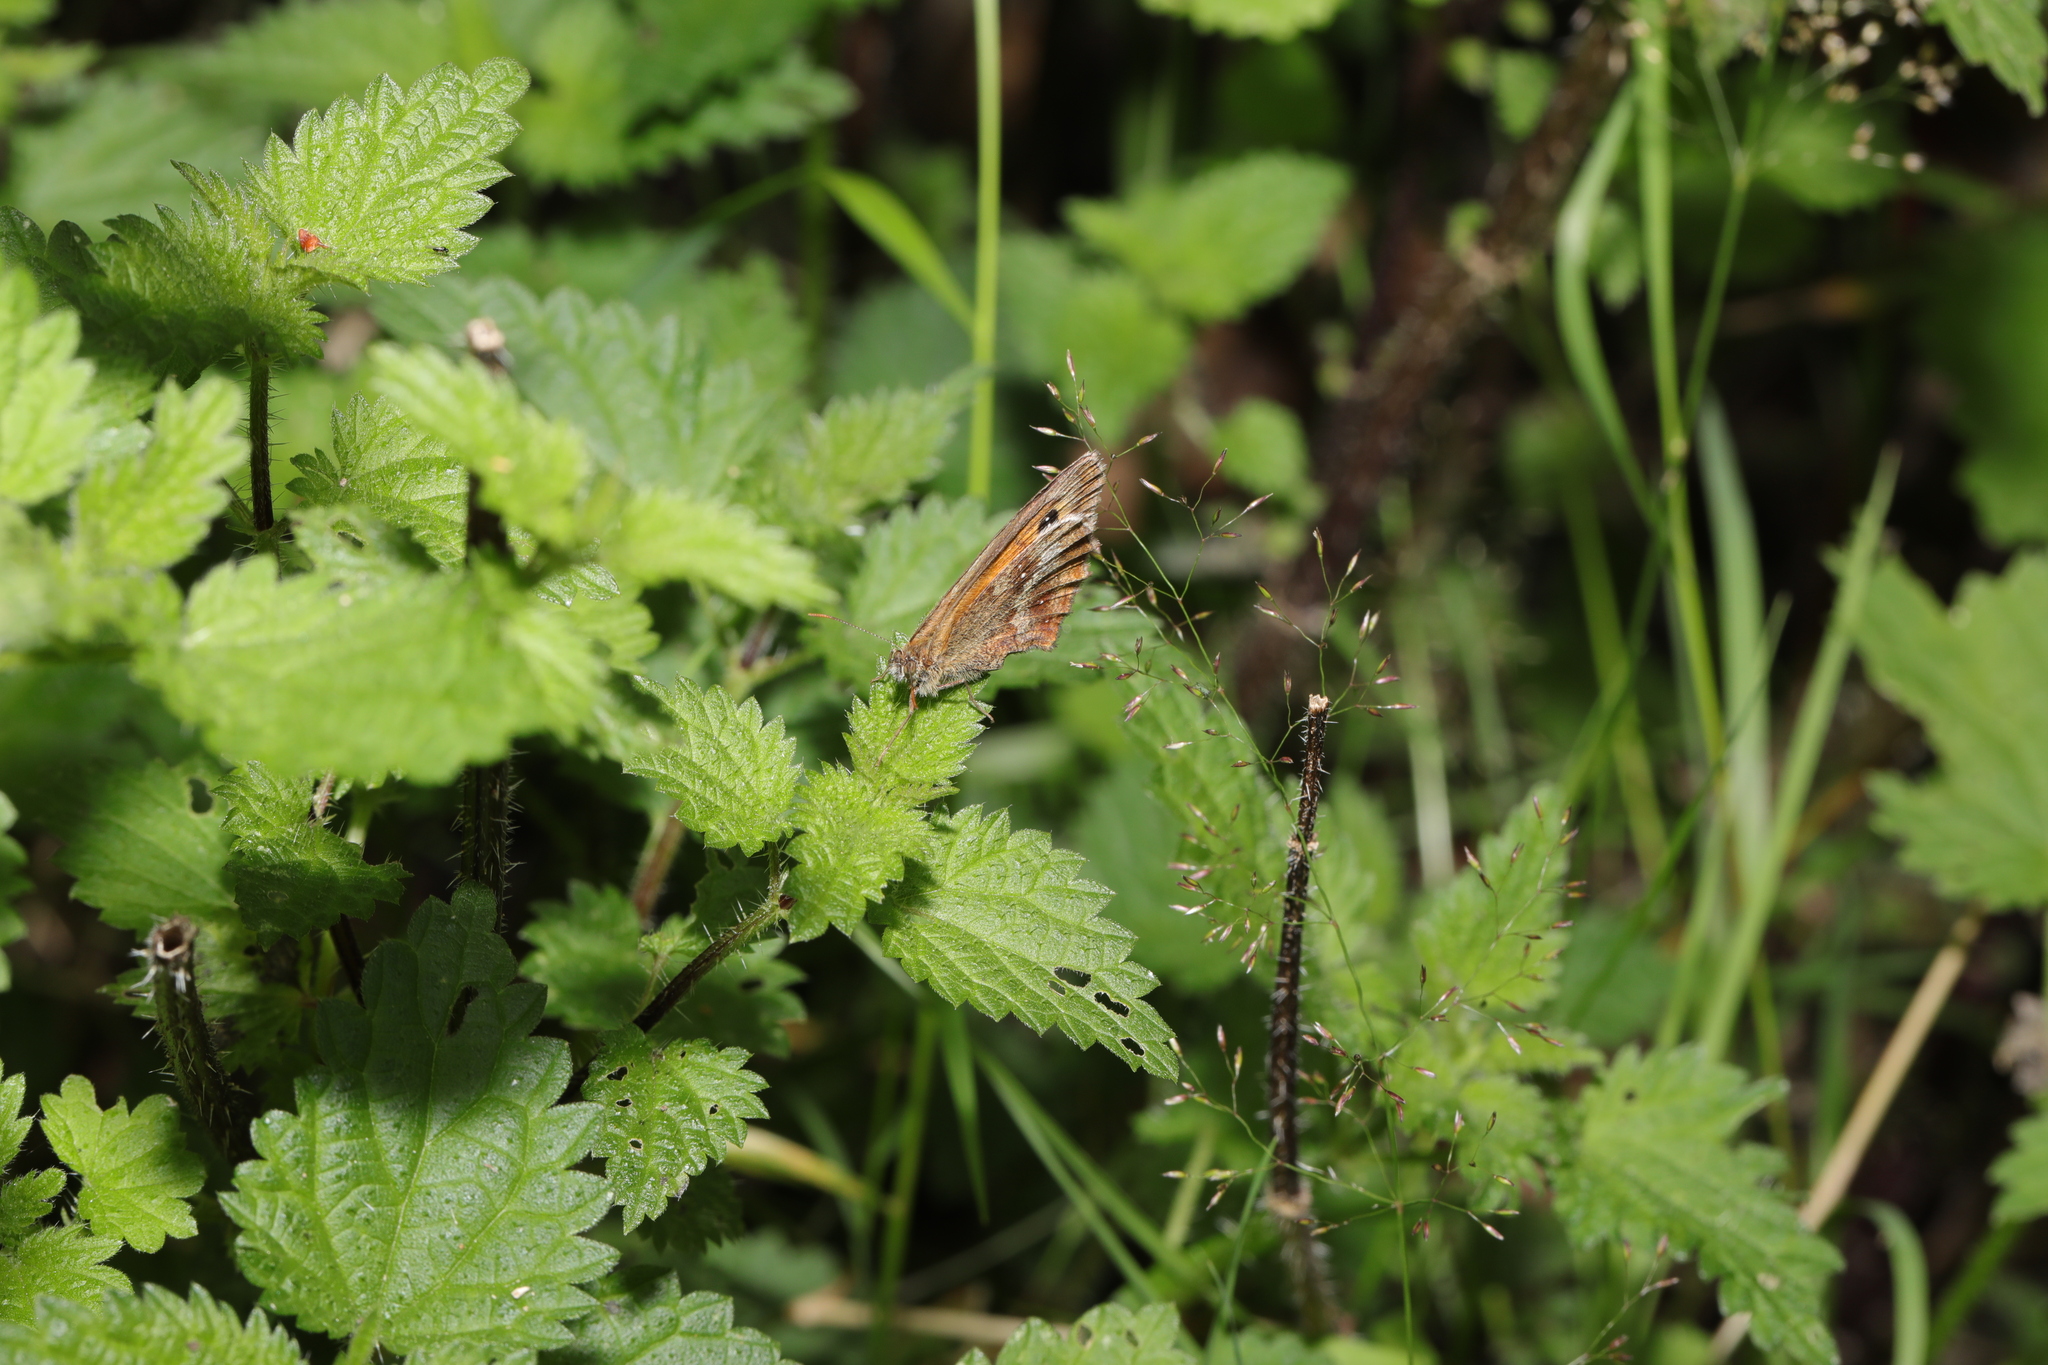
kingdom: Animalia
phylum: Arthropoda
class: Insecta
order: Lepidoptera
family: Nymphalidae
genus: Pyronia
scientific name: Pyronia tithonus
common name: Gatekeeper
